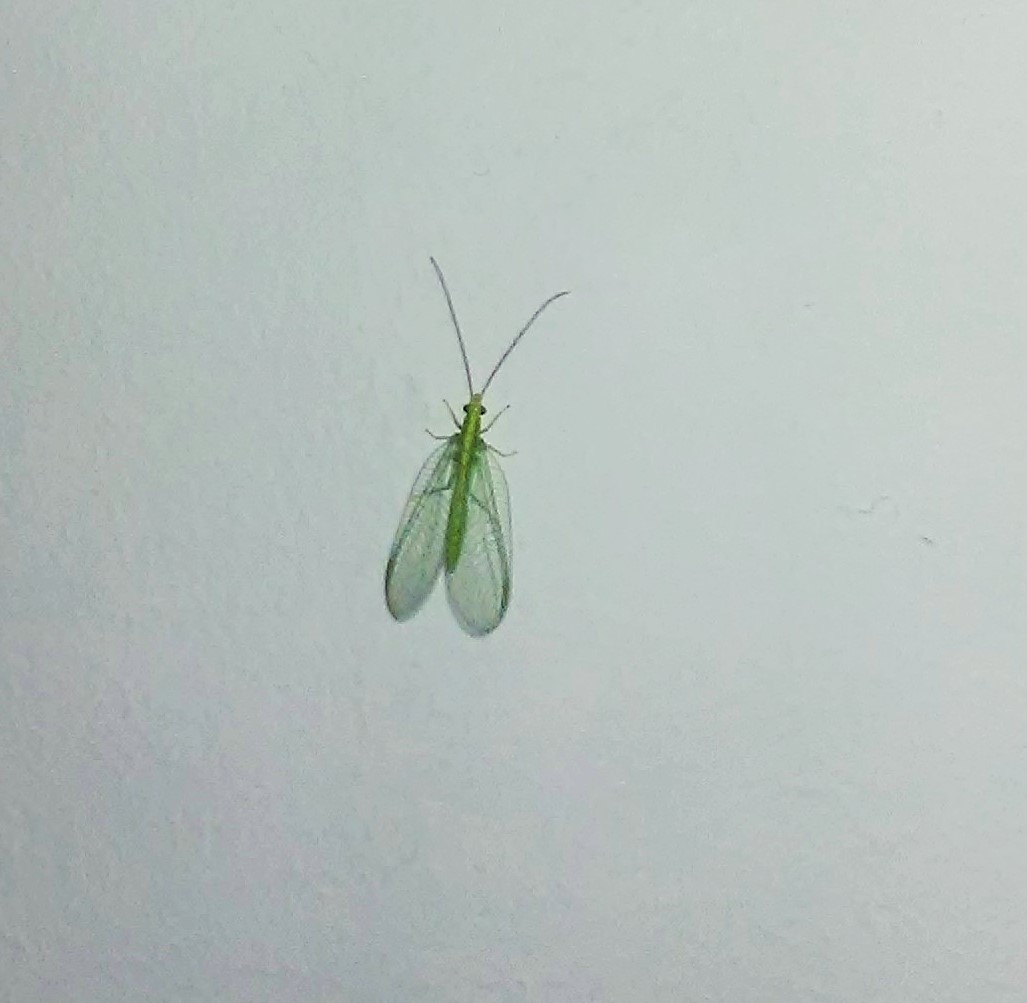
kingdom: Animalia
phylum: Arthropoda
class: Insecta
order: Neuroptera
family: Chrysopidae
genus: Chrysoperla
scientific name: Chrysoperla
